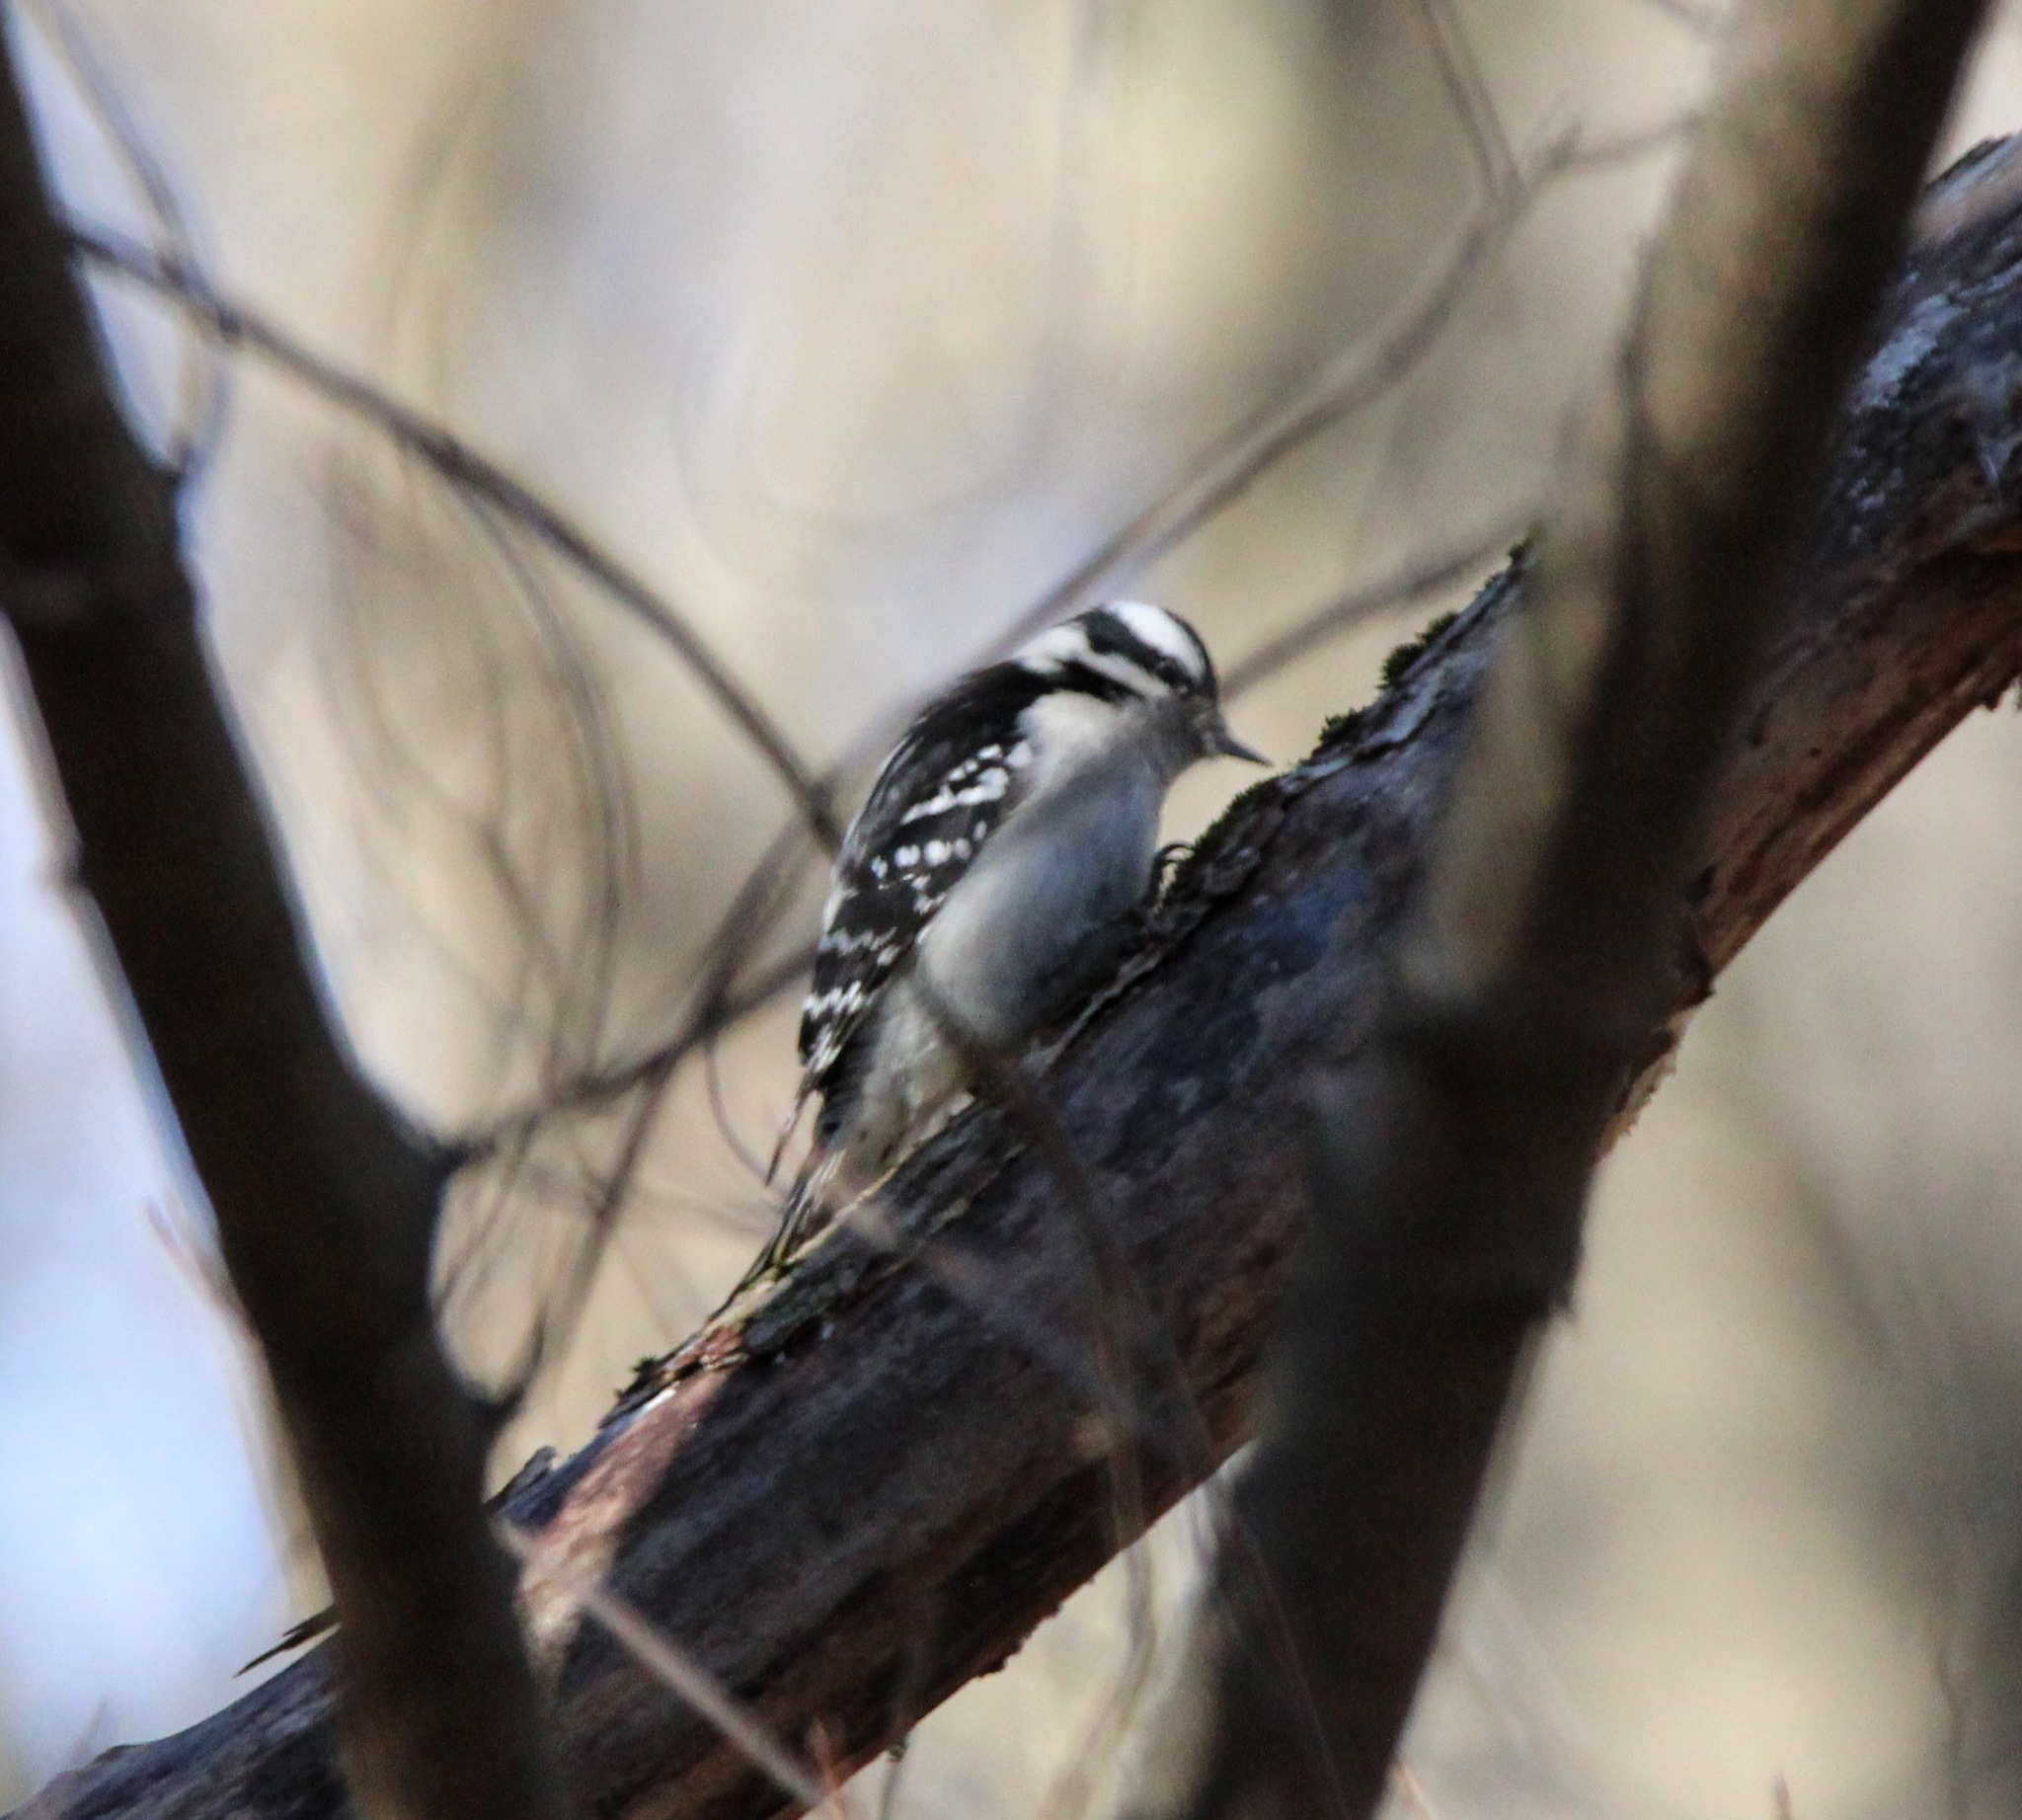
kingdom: Animalia
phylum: Chordata
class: Aves
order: Piciformes
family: Picidae
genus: Dryobates
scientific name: Dryobates pubescens
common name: Downy woodpecker
